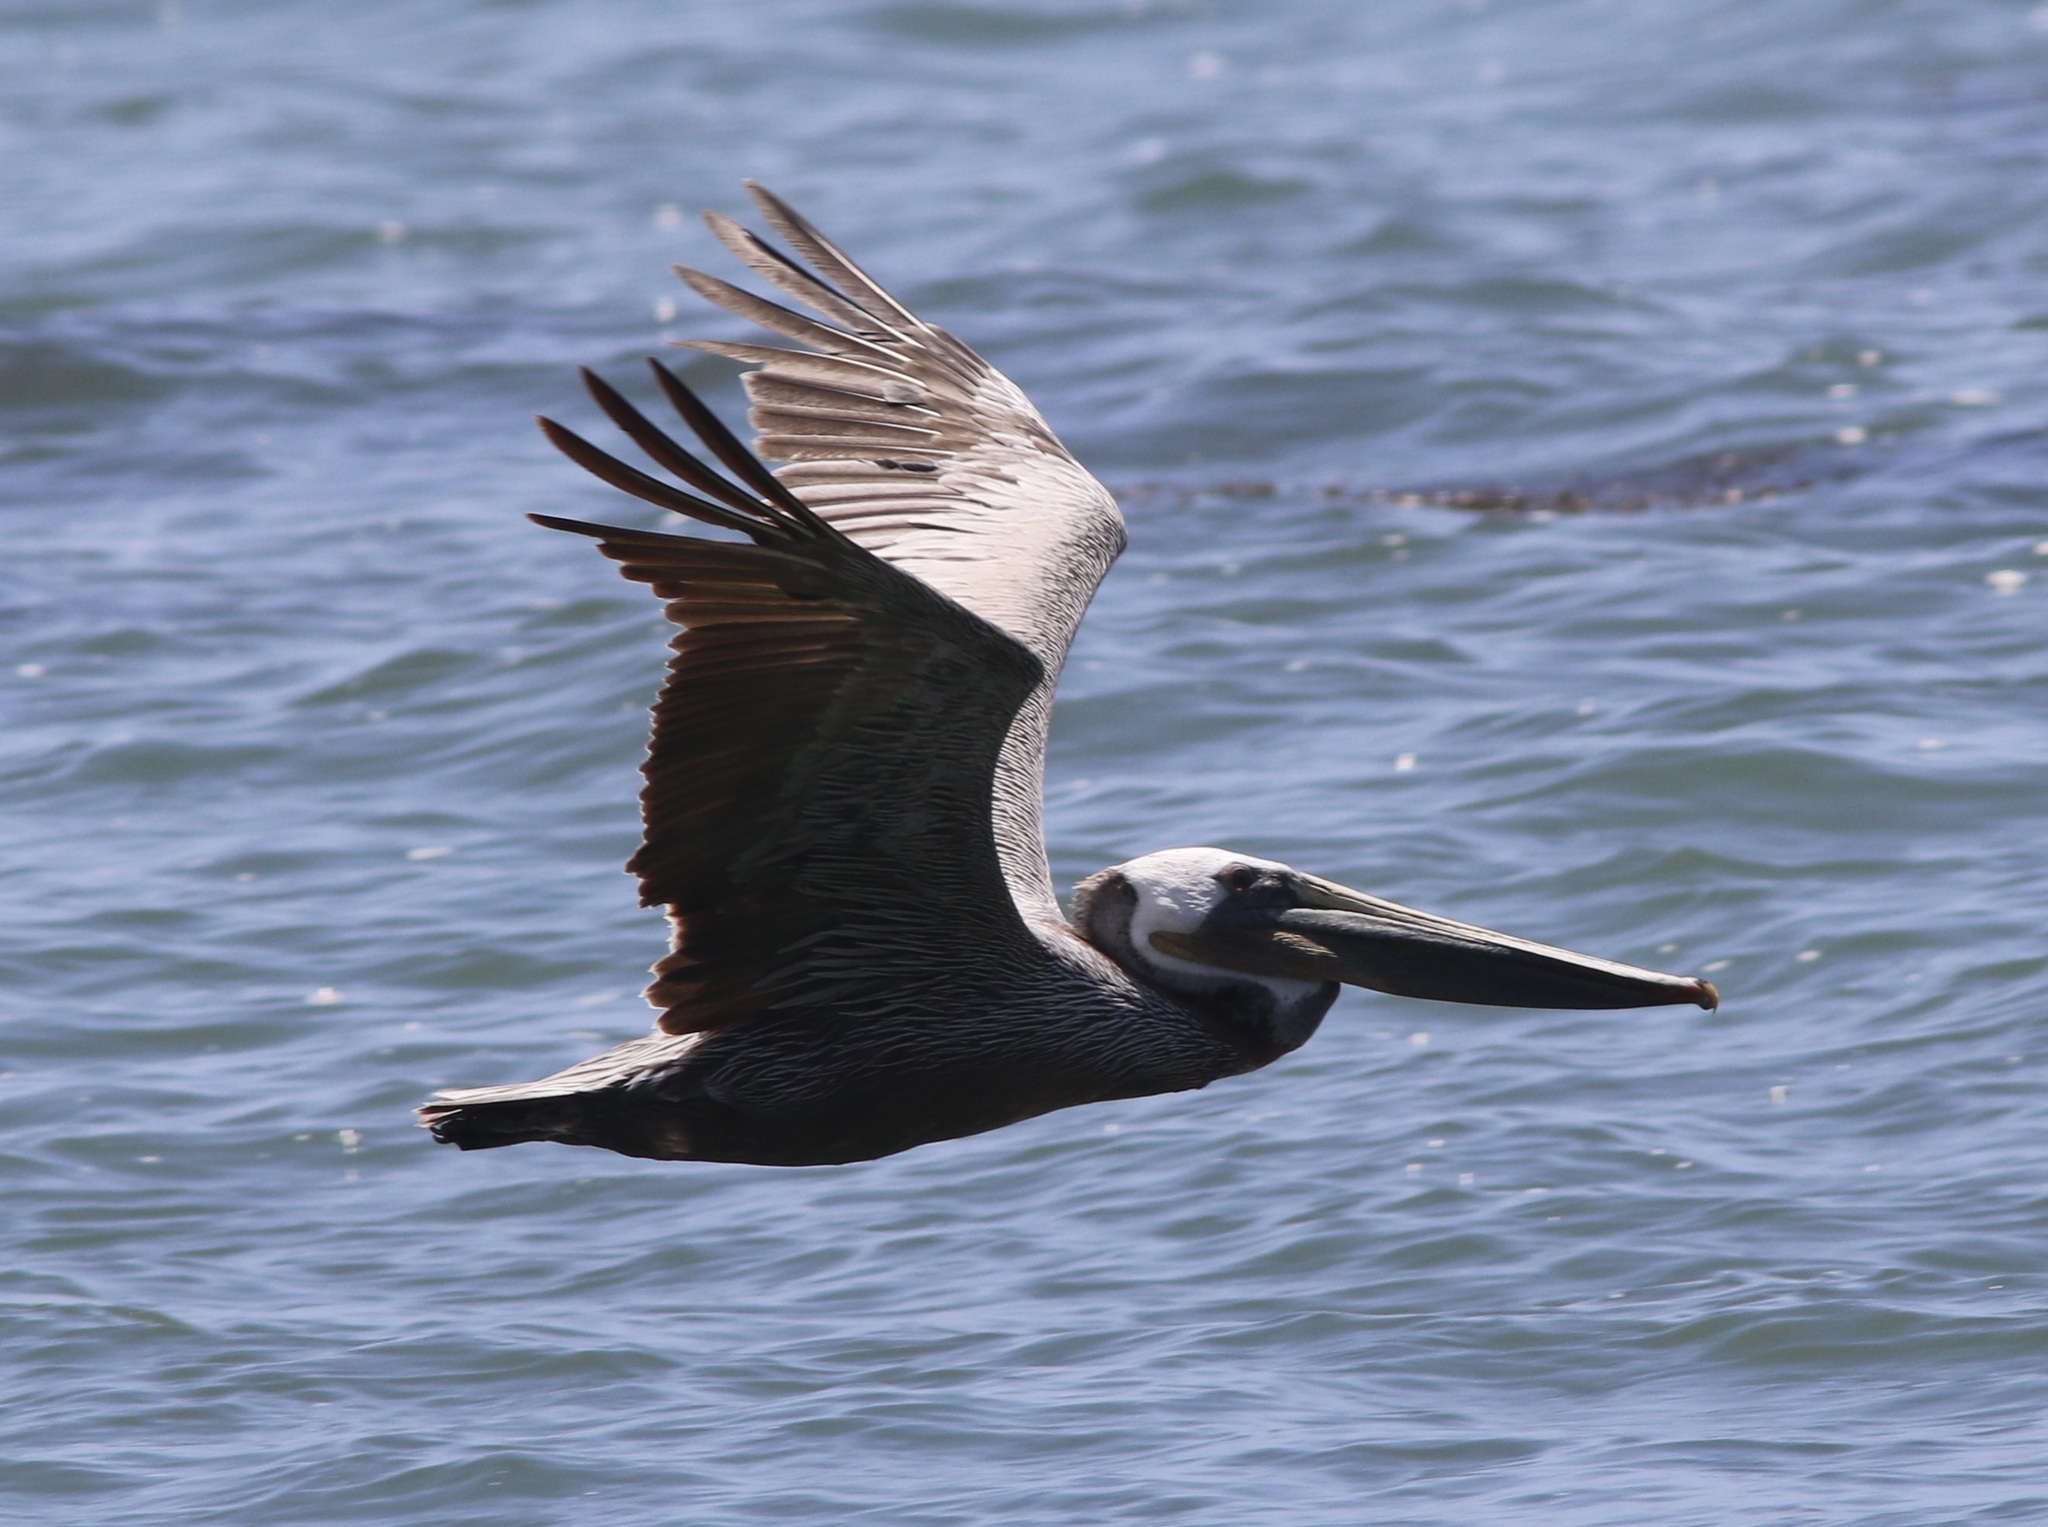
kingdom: Animalia
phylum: Chordata
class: Aves
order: Pelecaniformes
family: Pelecanidae
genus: Pelecanus
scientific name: Pelecanus occidentalis
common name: Brown pelican
